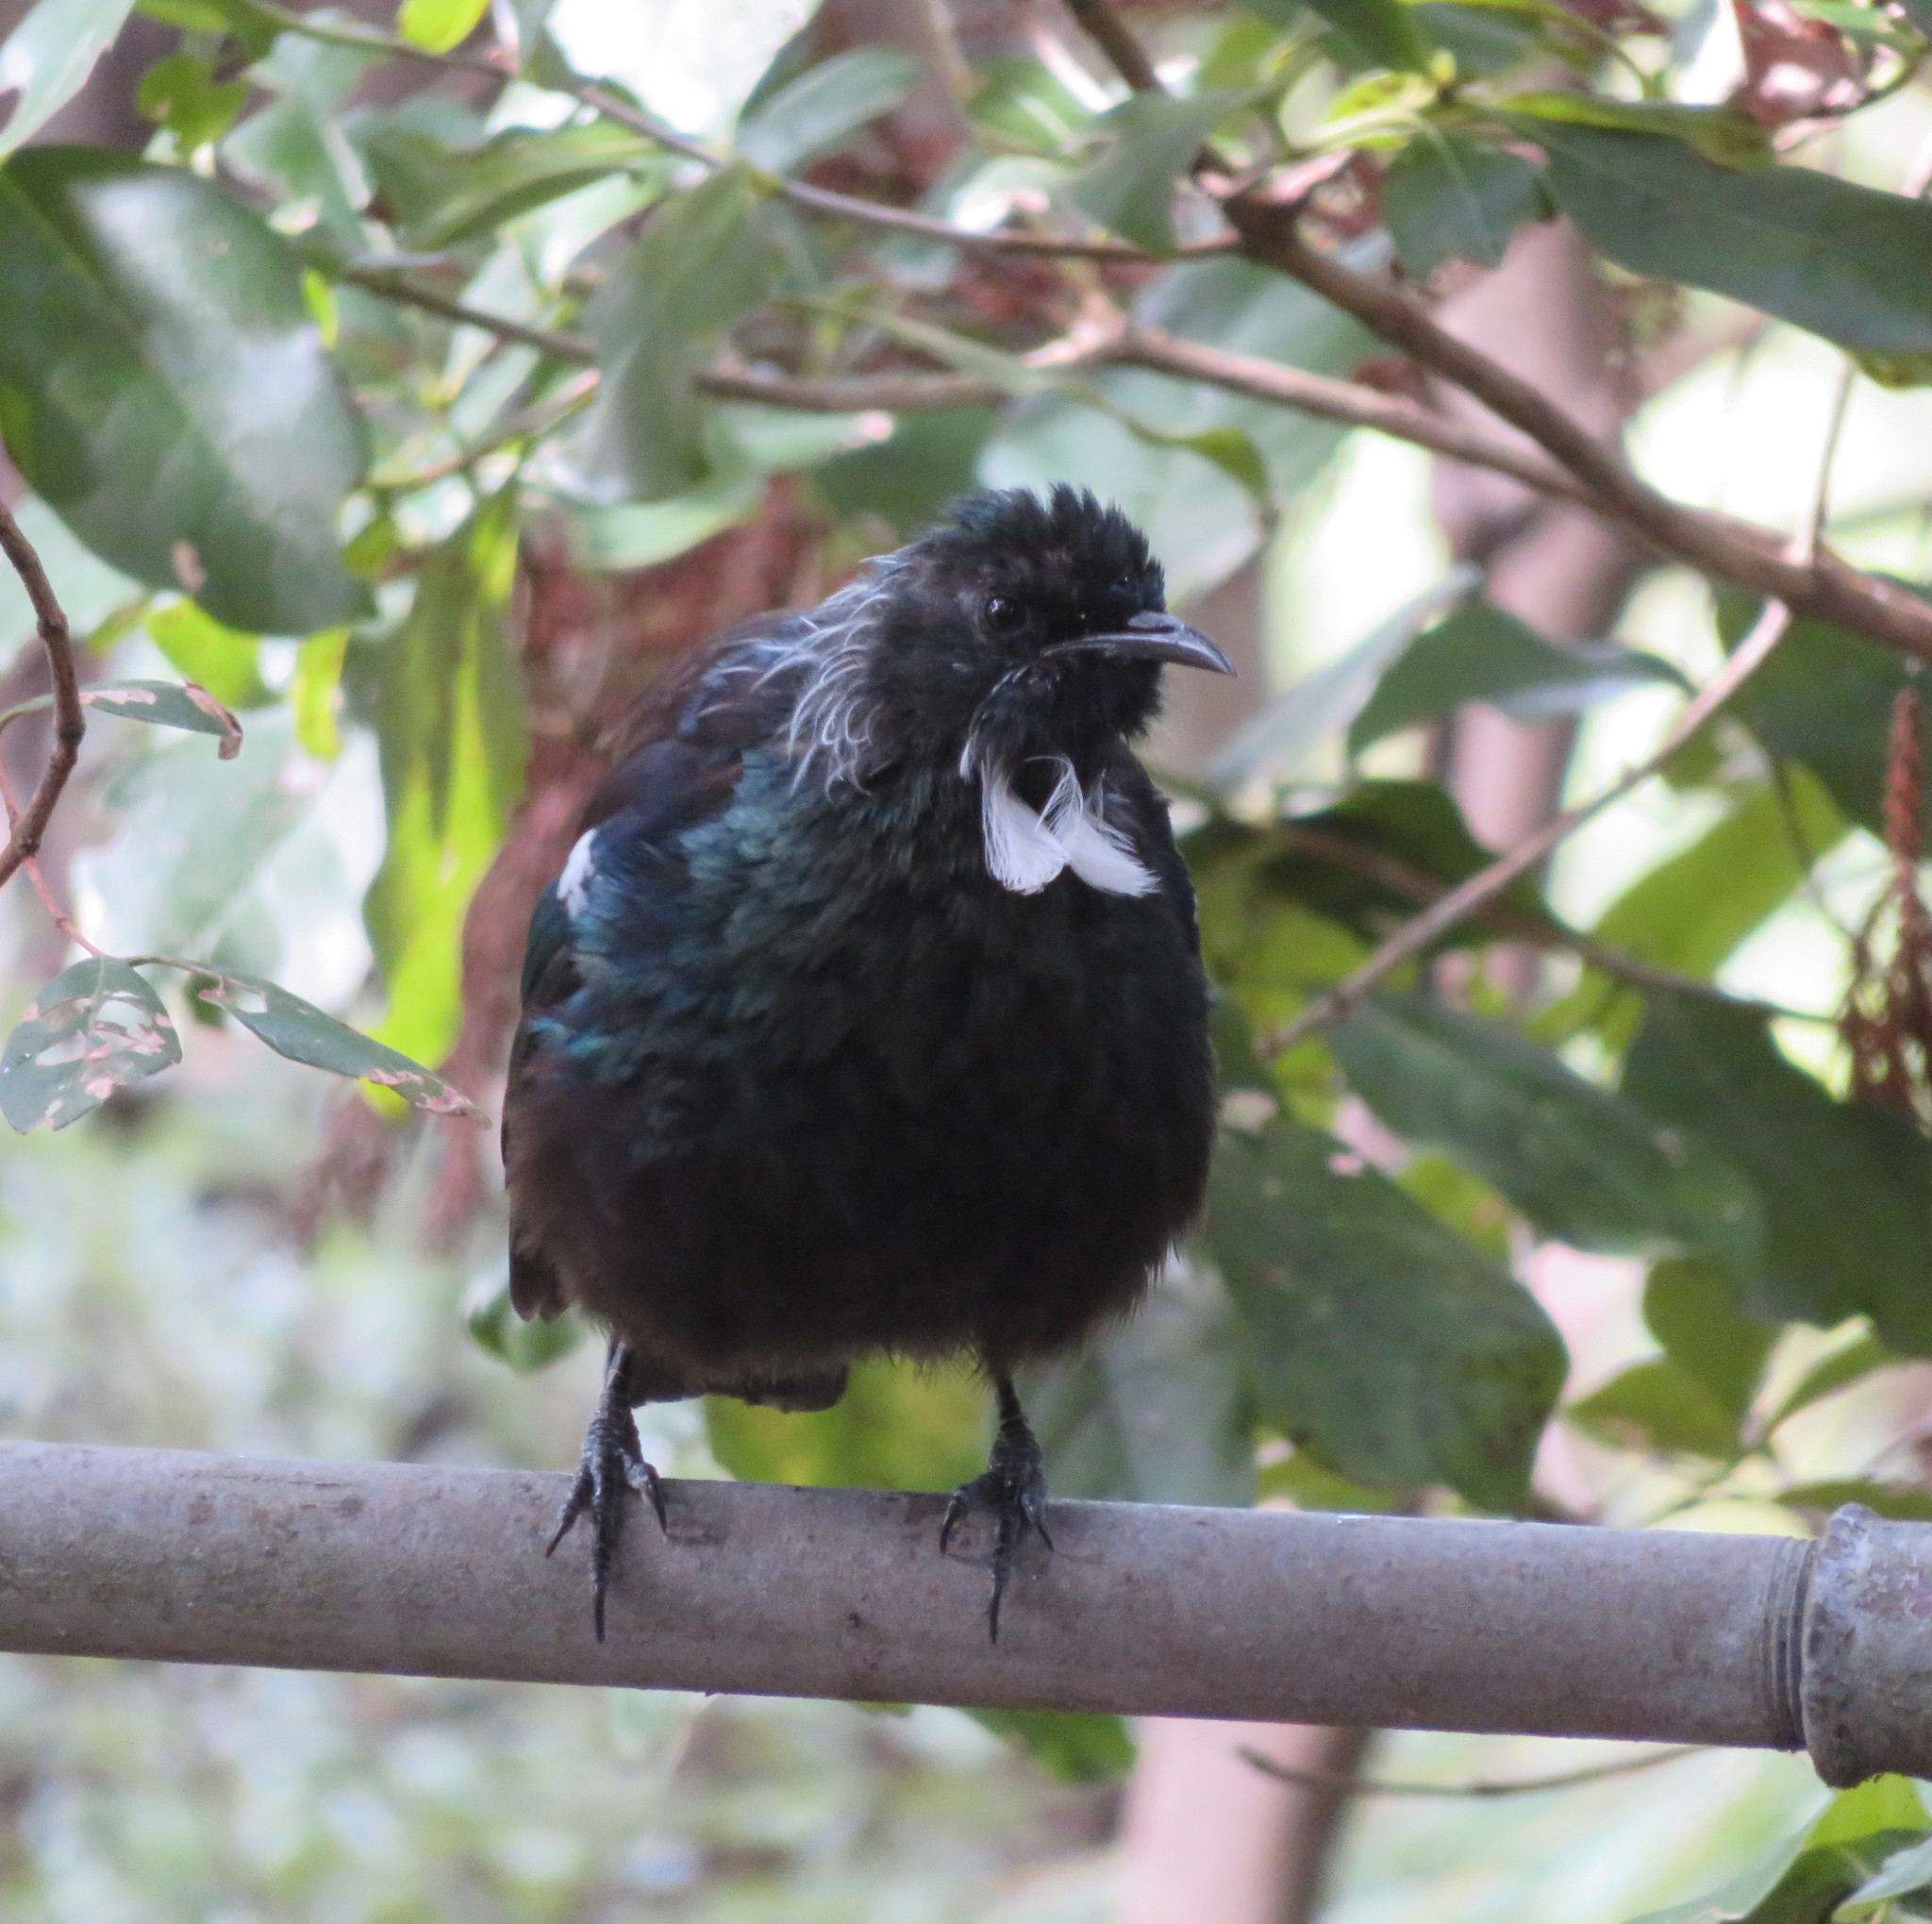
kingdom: Animalia
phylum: Chordata
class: Aves
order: Passeriformes
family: Meliphagidae
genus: Prosthemadera
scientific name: Prosthemadera novaeseelandiae
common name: Tui
